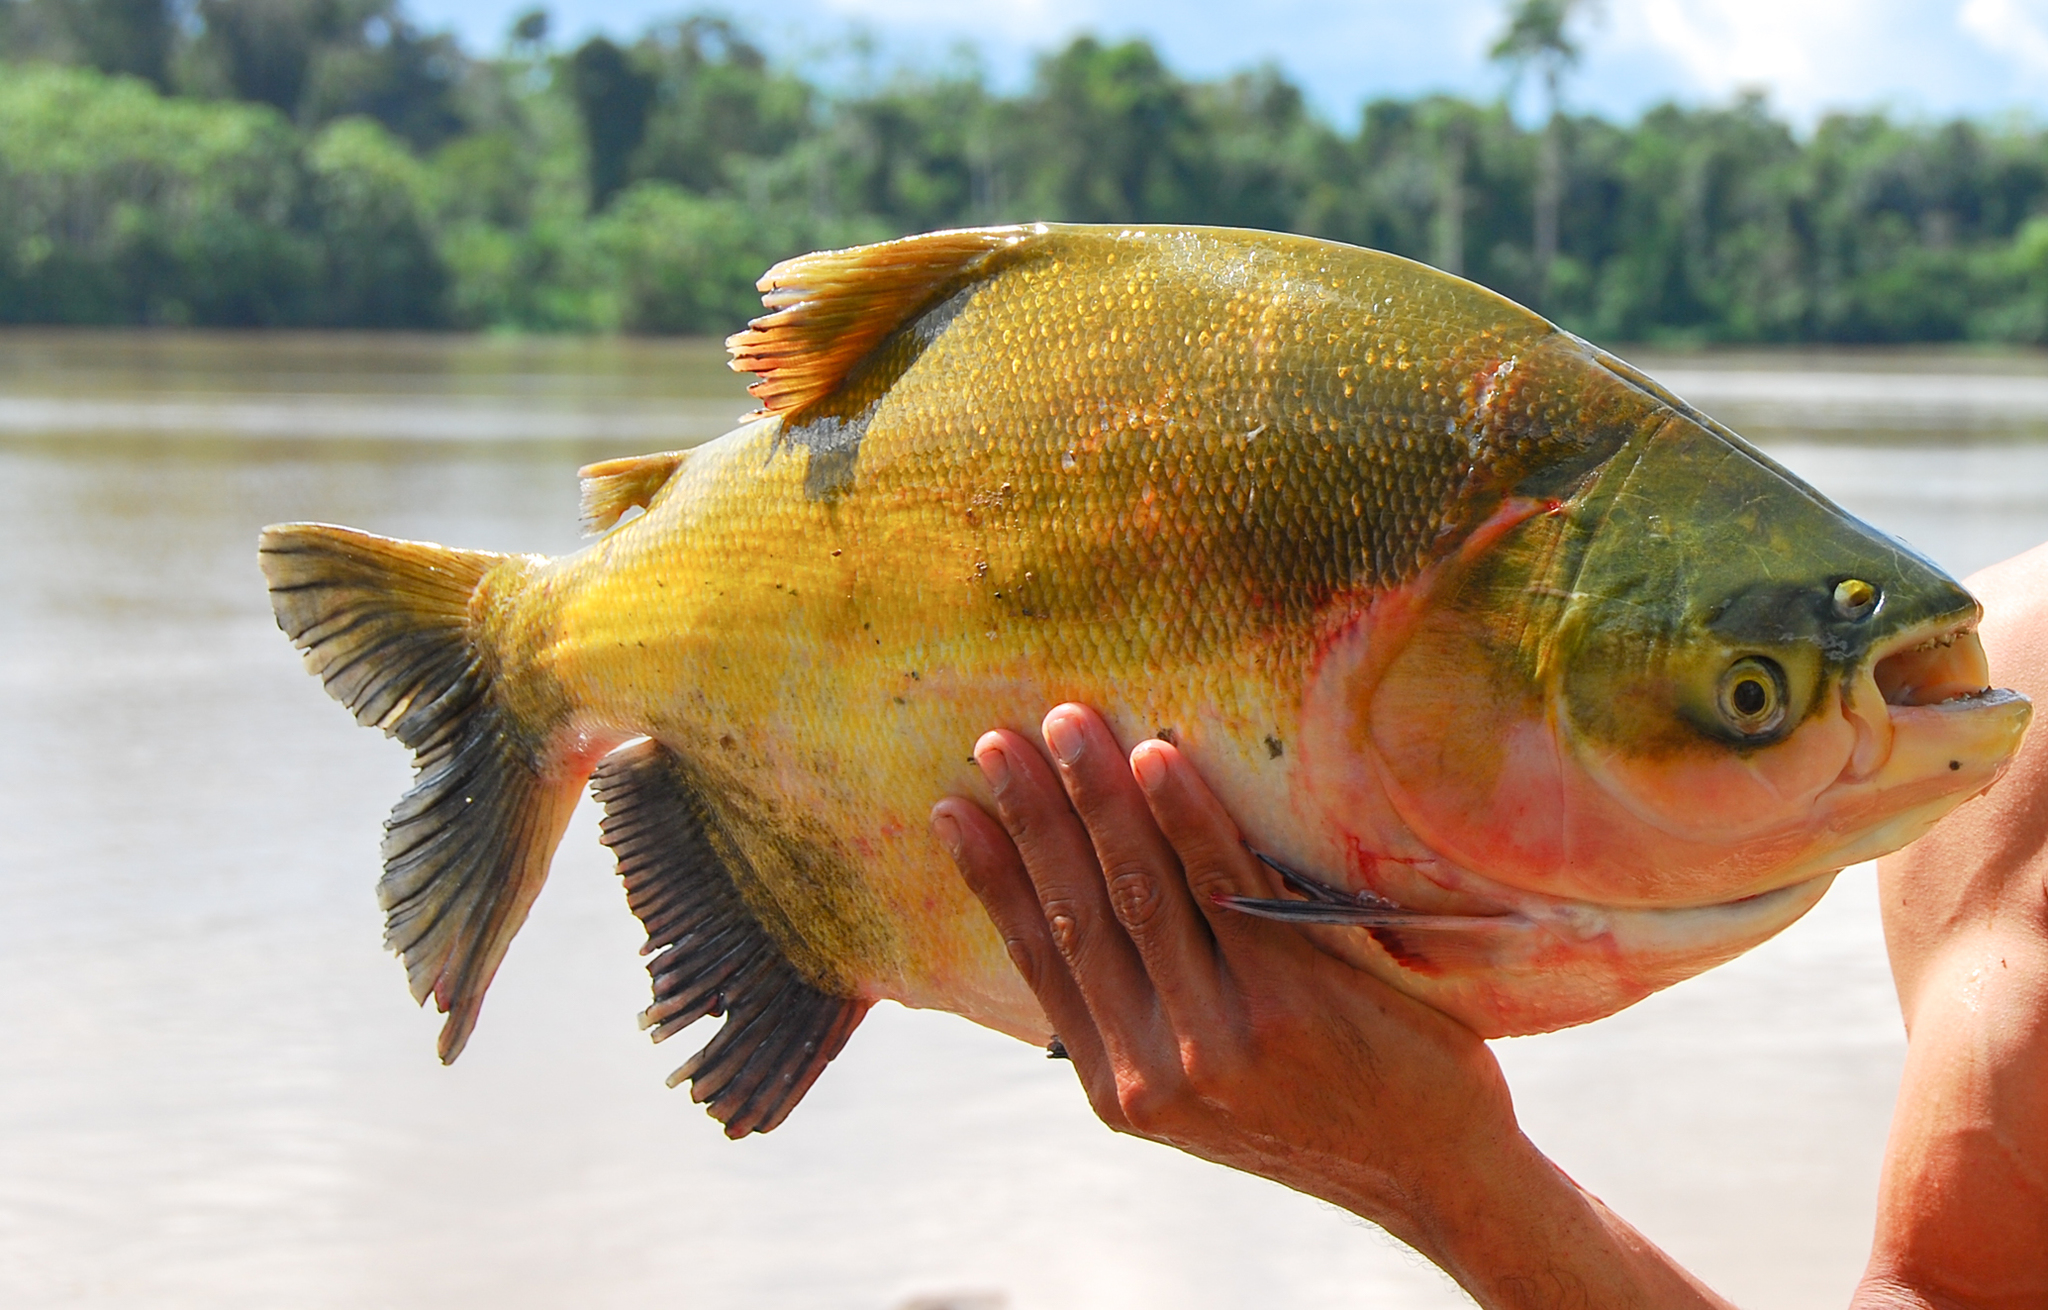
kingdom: Animalia
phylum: Chordata
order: Characiformes
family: Serrasalmidae
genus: Colossoma
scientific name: Colossoma macropomum
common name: Blackfin pacu
